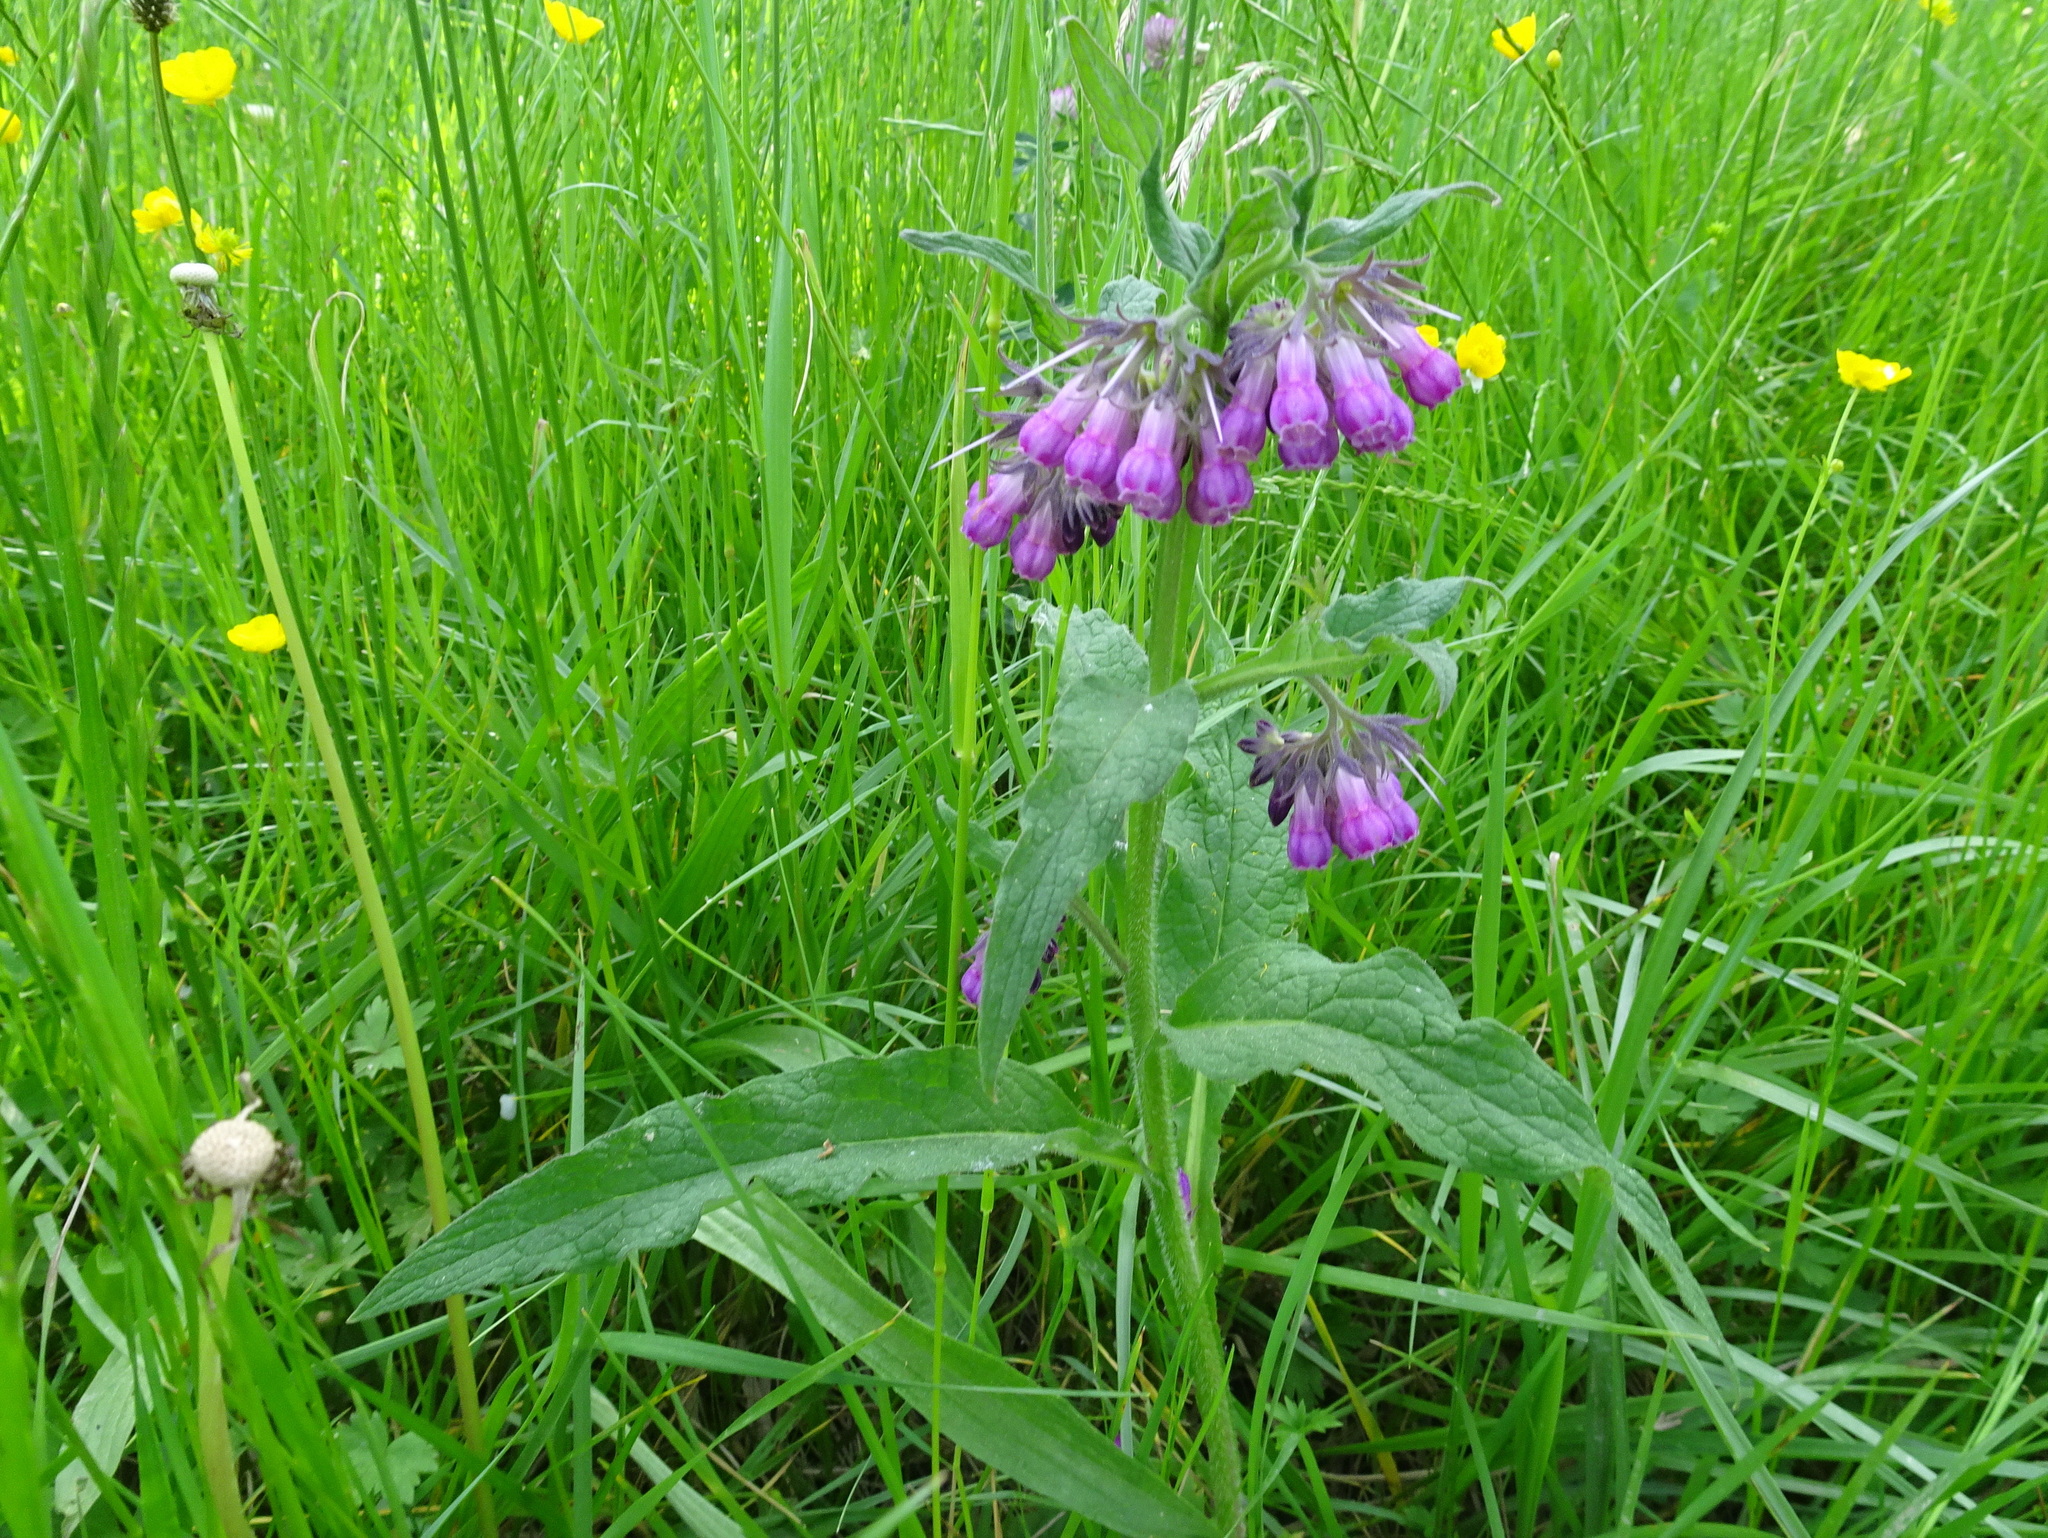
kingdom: Plantae
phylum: Tracheophyta
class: Magnoliopsida
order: Boraginales
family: Boraginaceae
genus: Symphytum
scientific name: Symphytum officinale
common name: Common comfrey
